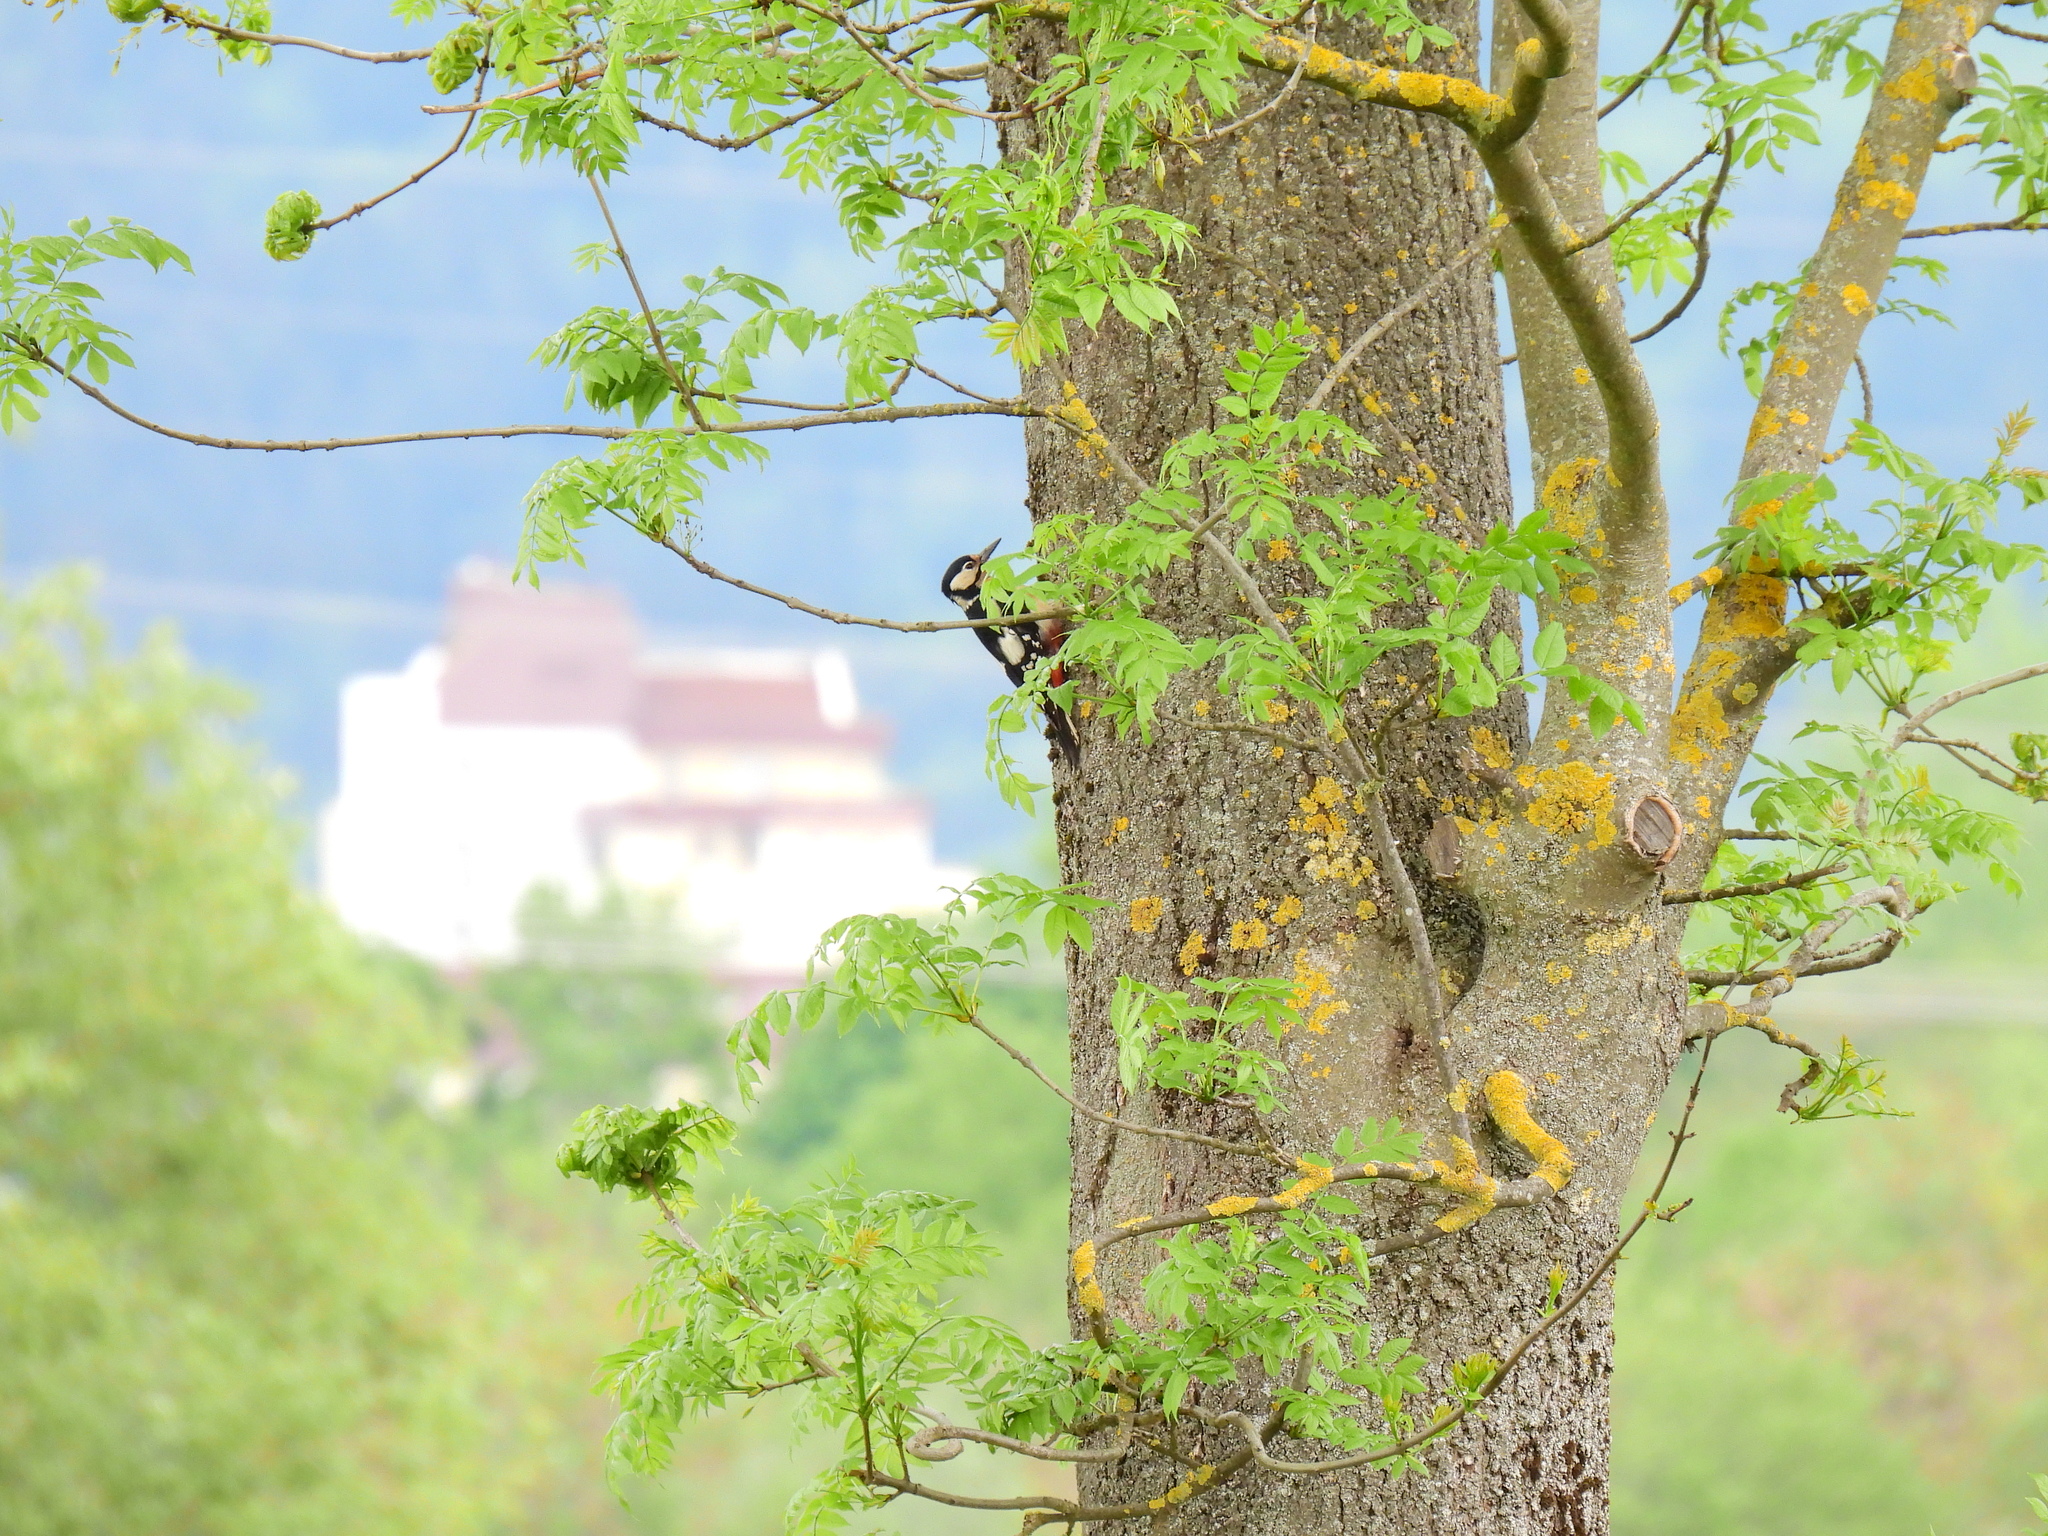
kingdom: Animalia
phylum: Chordata
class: Aves
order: Piciformes
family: Picidae
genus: Dendrocopos
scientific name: Dendrocopos major
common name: Great spotted woodpecker
